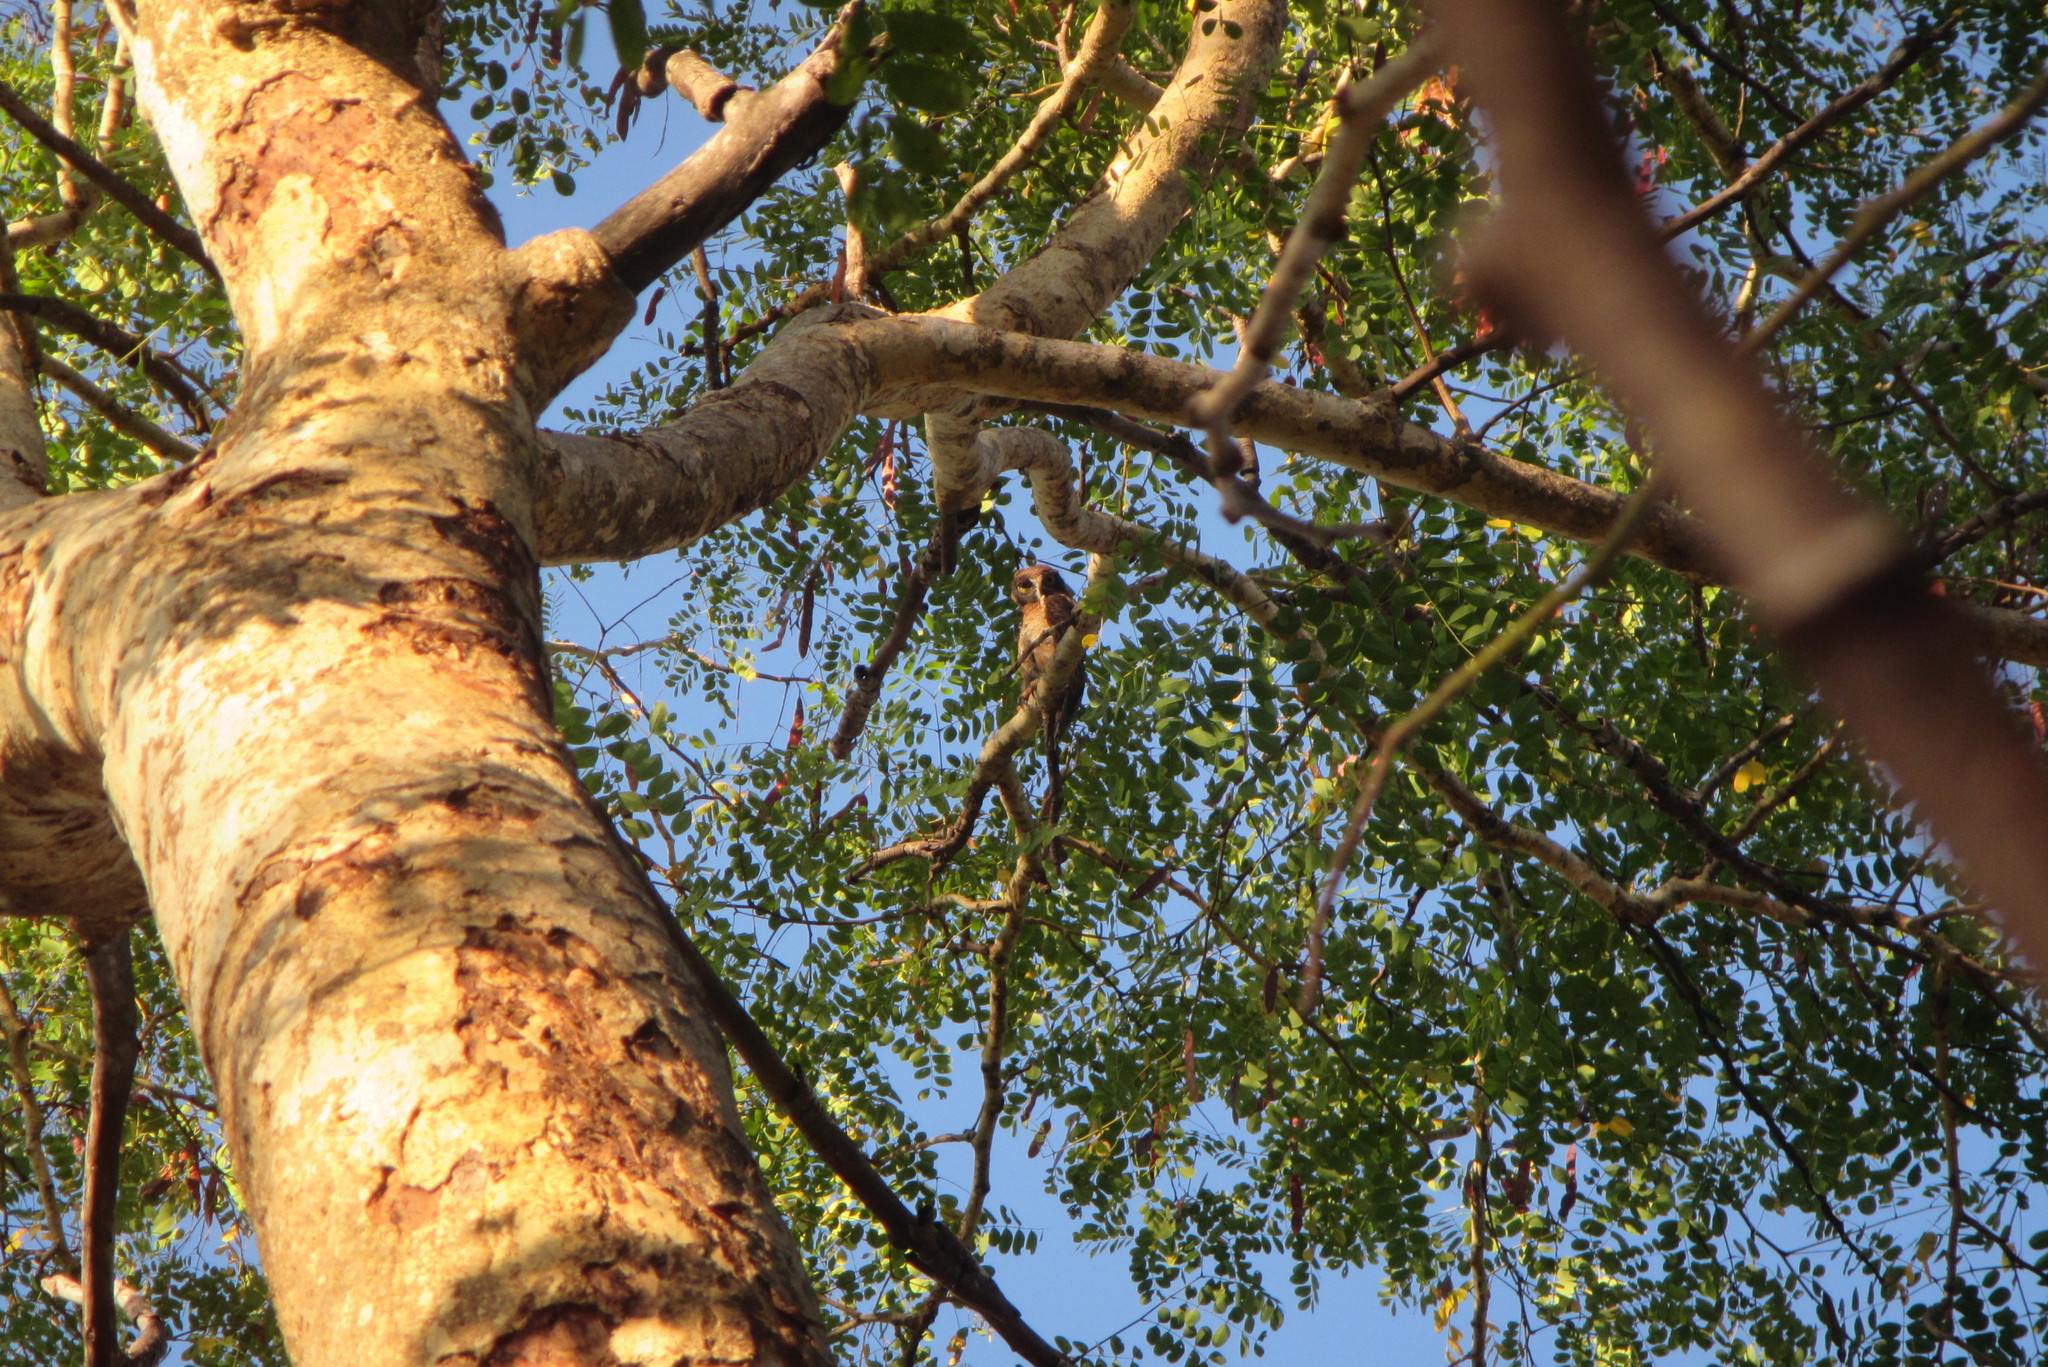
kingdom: Animalia
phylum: Chordata
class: Aves
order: Strigiformes
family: Strigidae
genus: Ninox
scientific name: Ninox rufa
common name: Rufous owl
